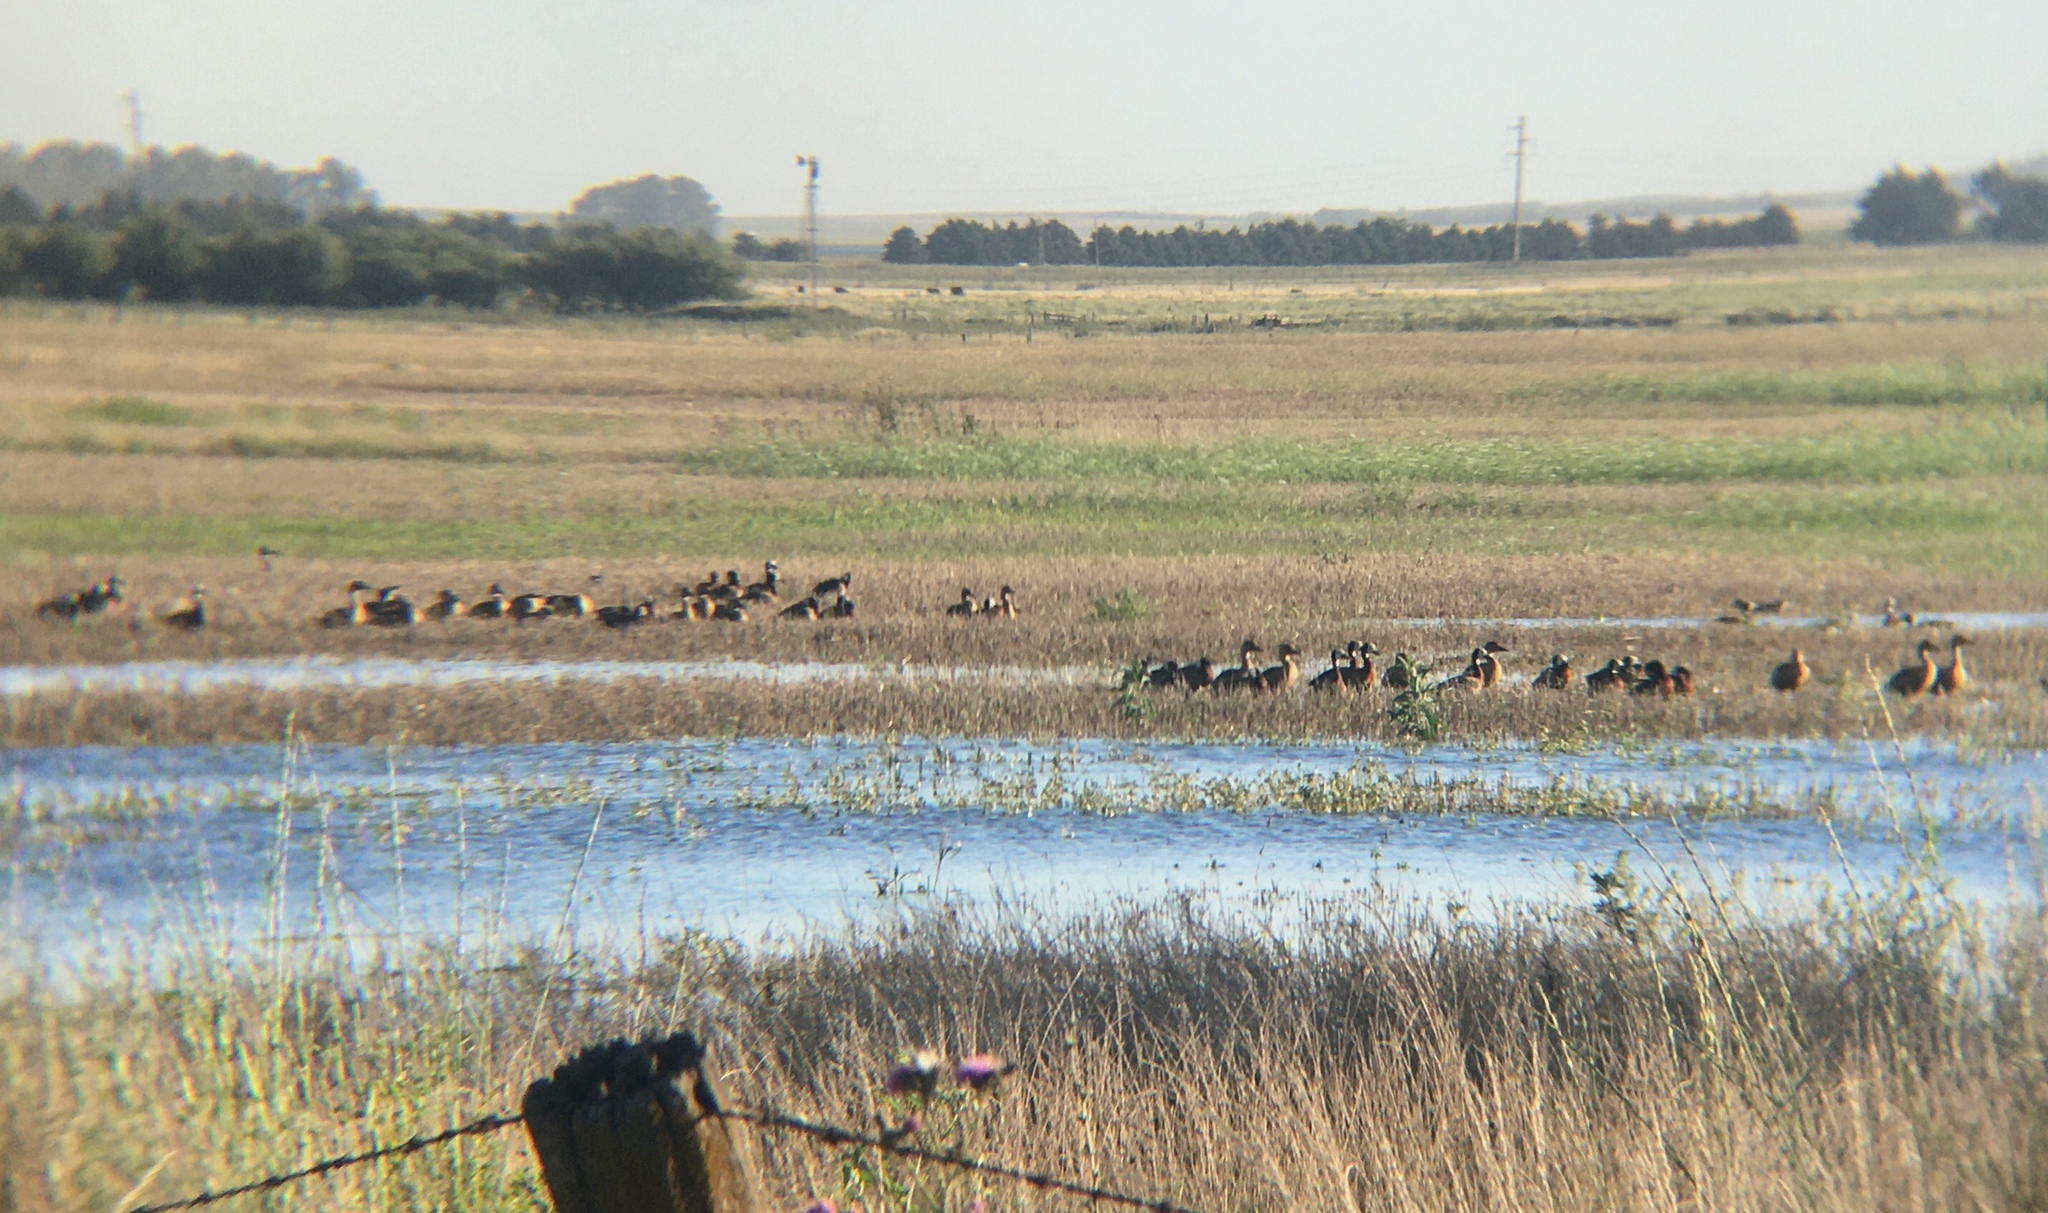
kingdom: Animalia
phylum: Chordata
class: Aves
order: Anseriformes
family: Anatidae
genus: Dendrocygna
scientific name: Dendrocygna viduata
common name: White-faced whistling duck
